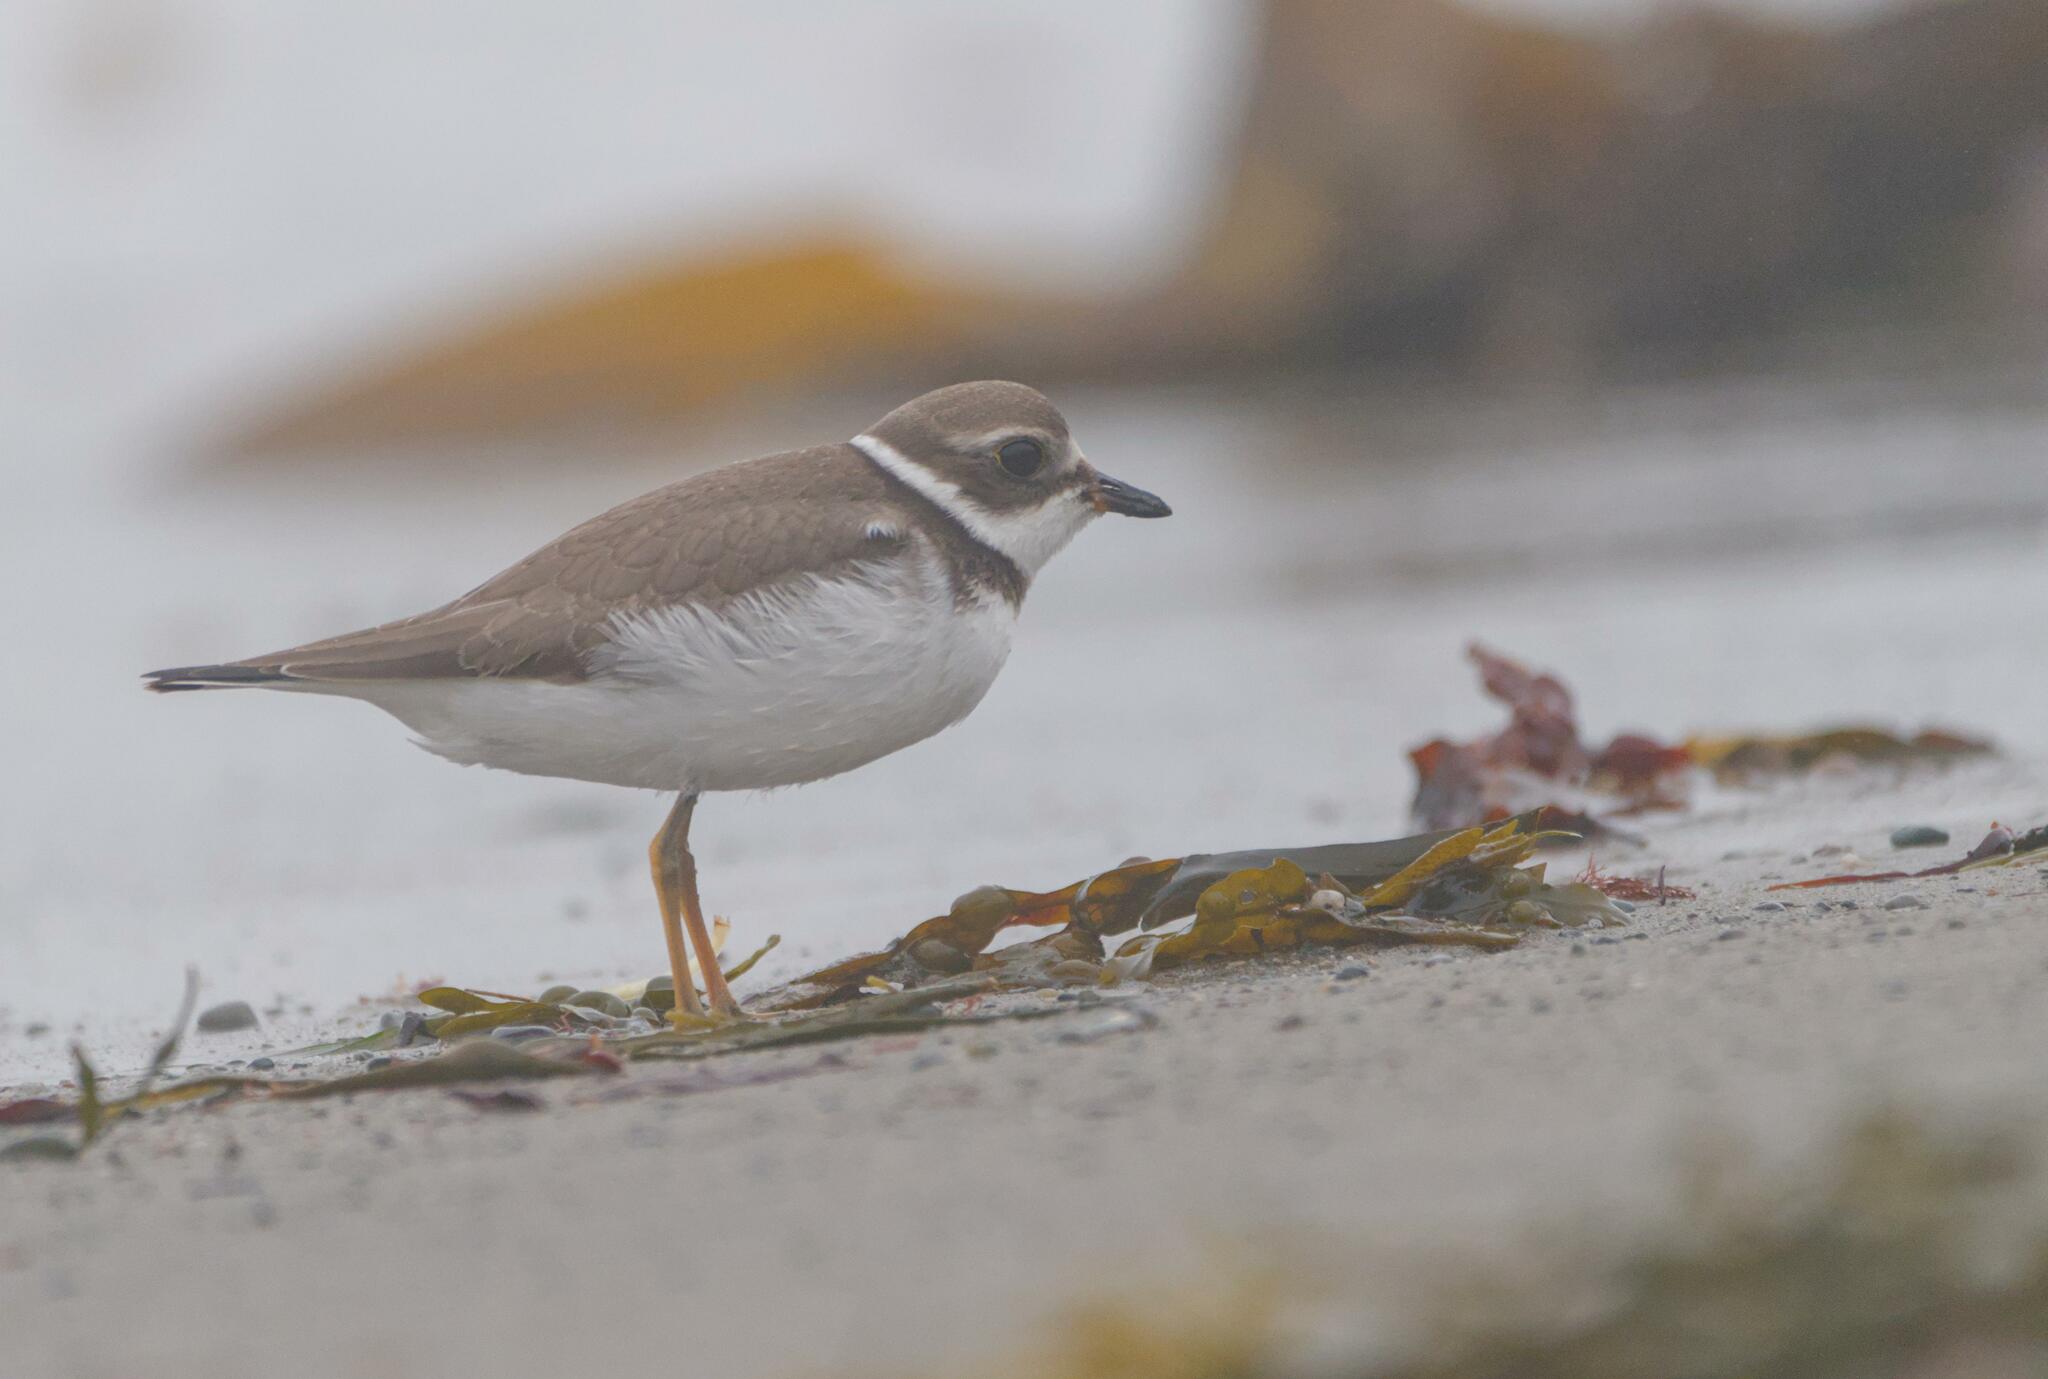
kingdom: Animalia
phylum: Chordata
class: Aves
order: Charadriiformes
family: Charadriidae
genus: Charadrius
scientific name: Charadrius semipalmatus
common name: Semipalmated plover
